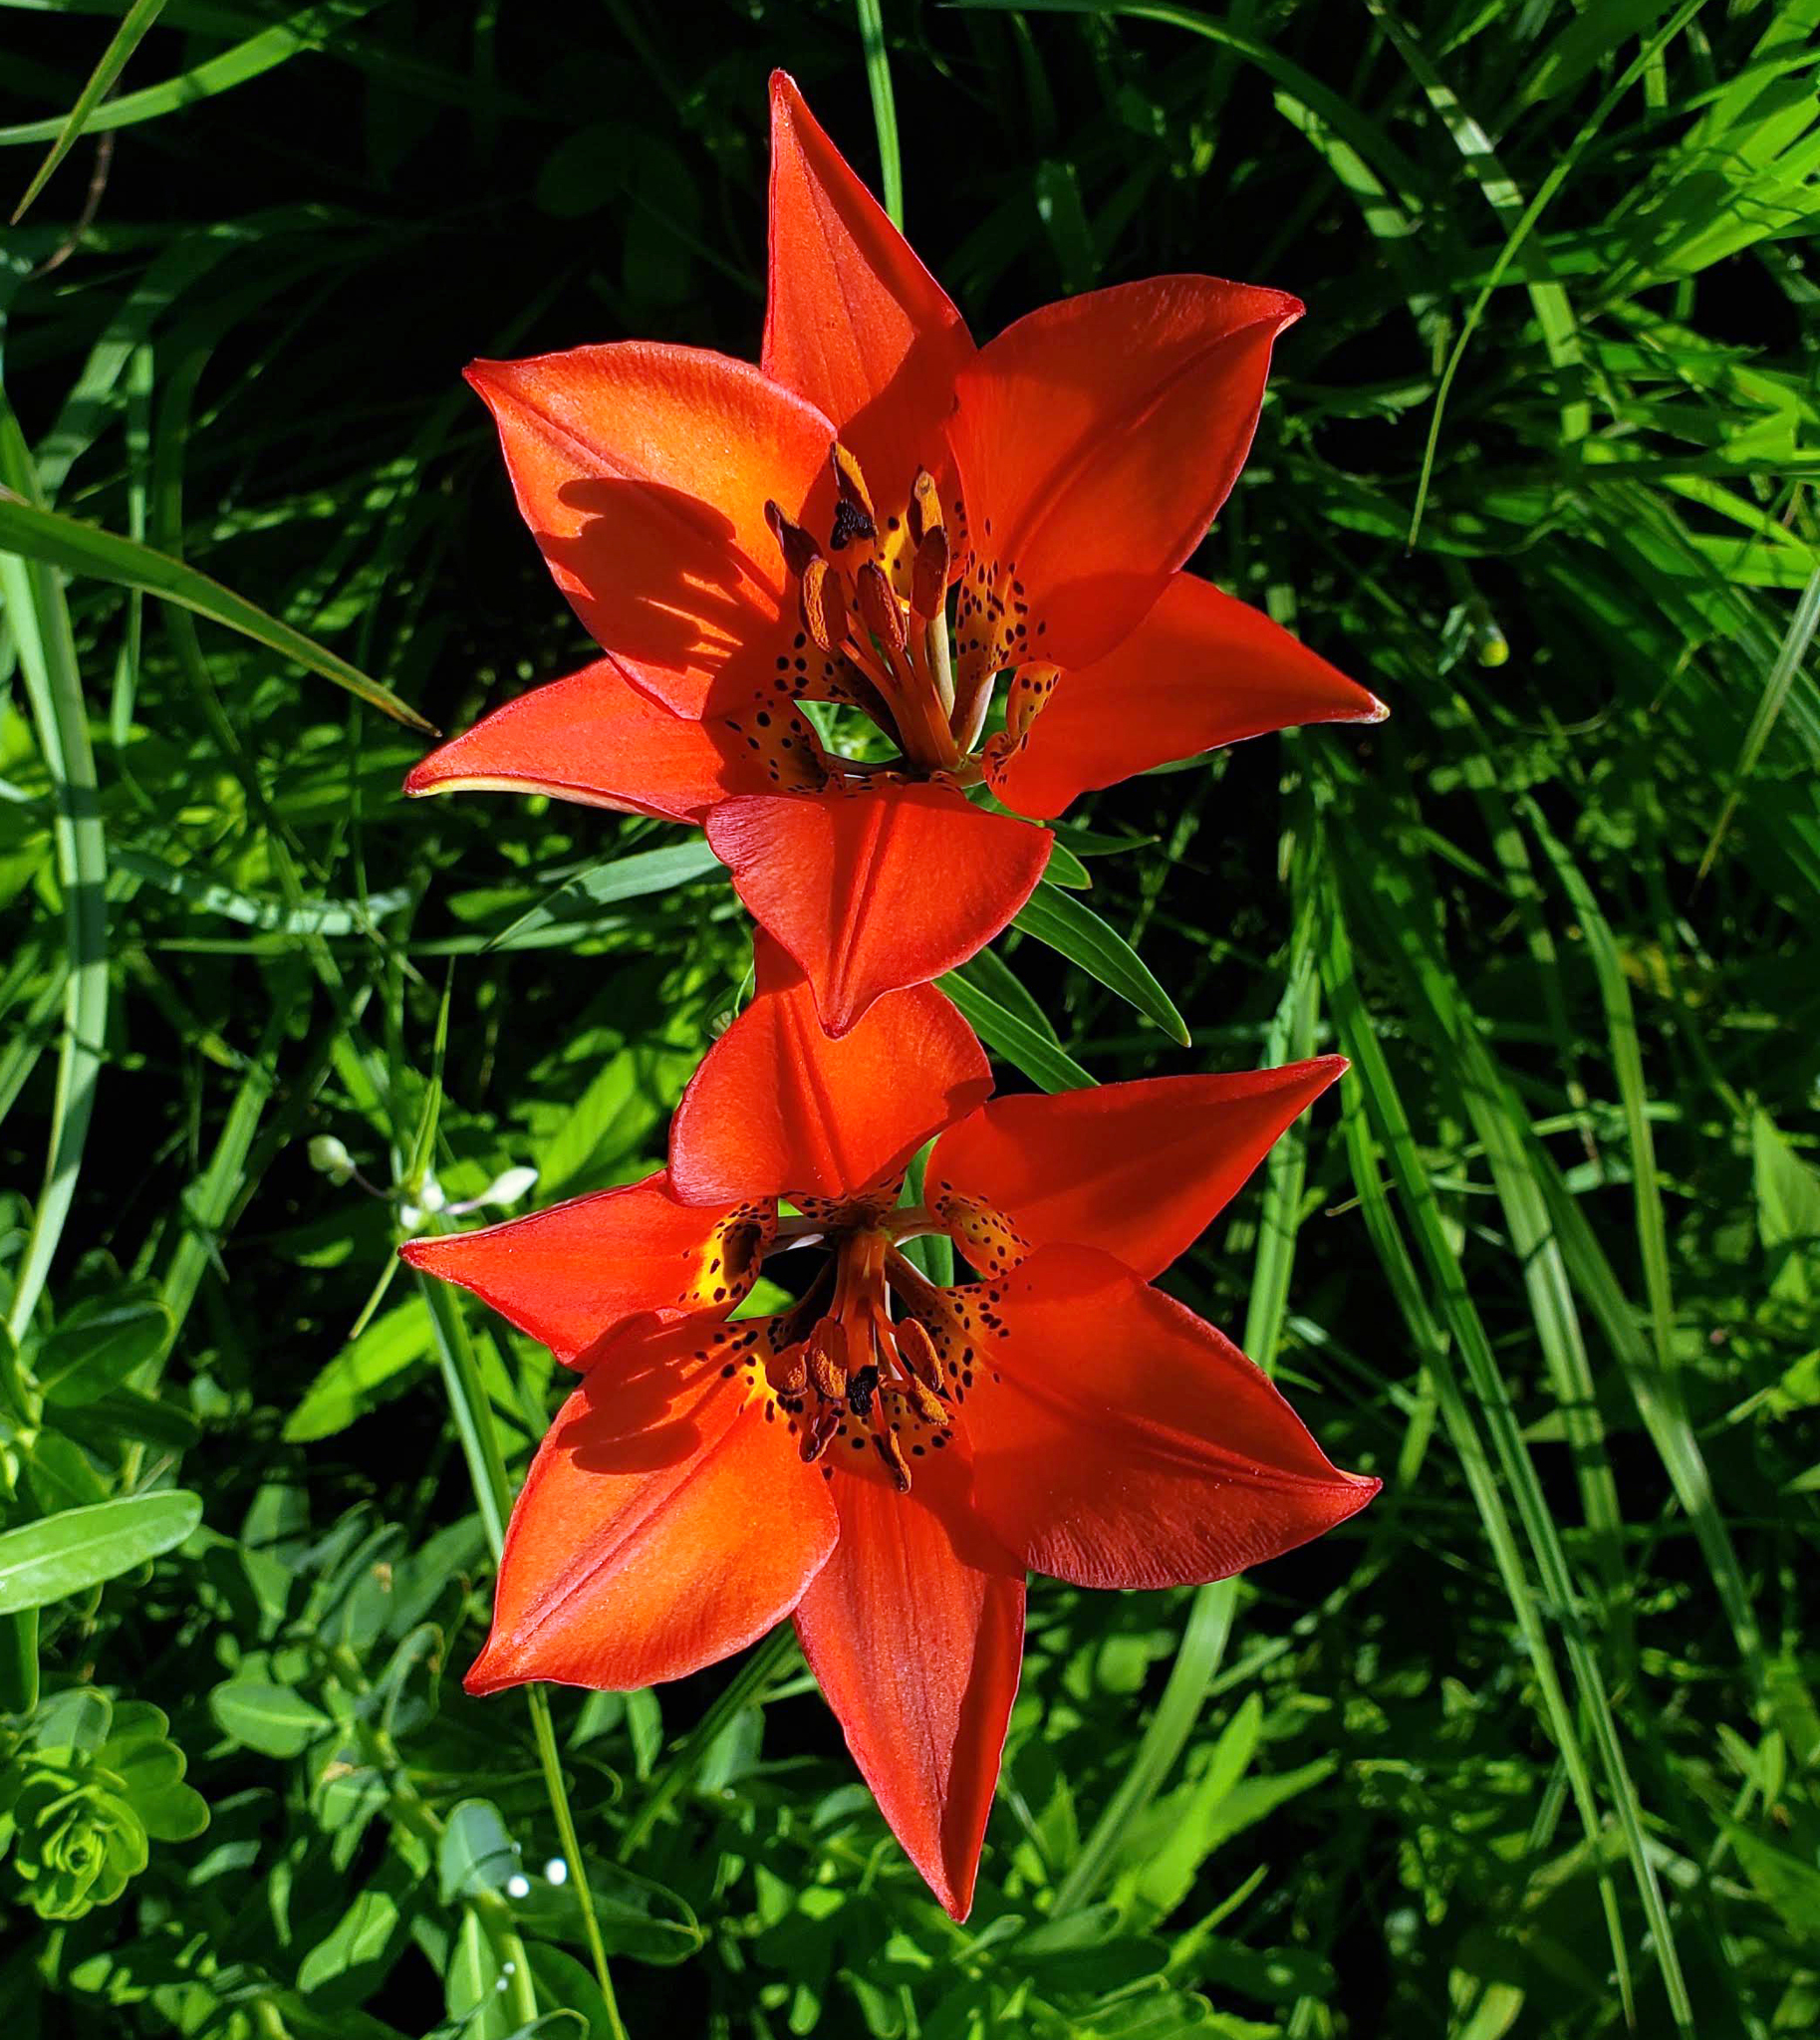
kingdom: Plantae
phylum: Tracheophyta
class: Liliopsida
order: Liliales
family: Liliaceae
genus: Lilium
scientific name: Lilium philadelphicum
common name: Red lily
